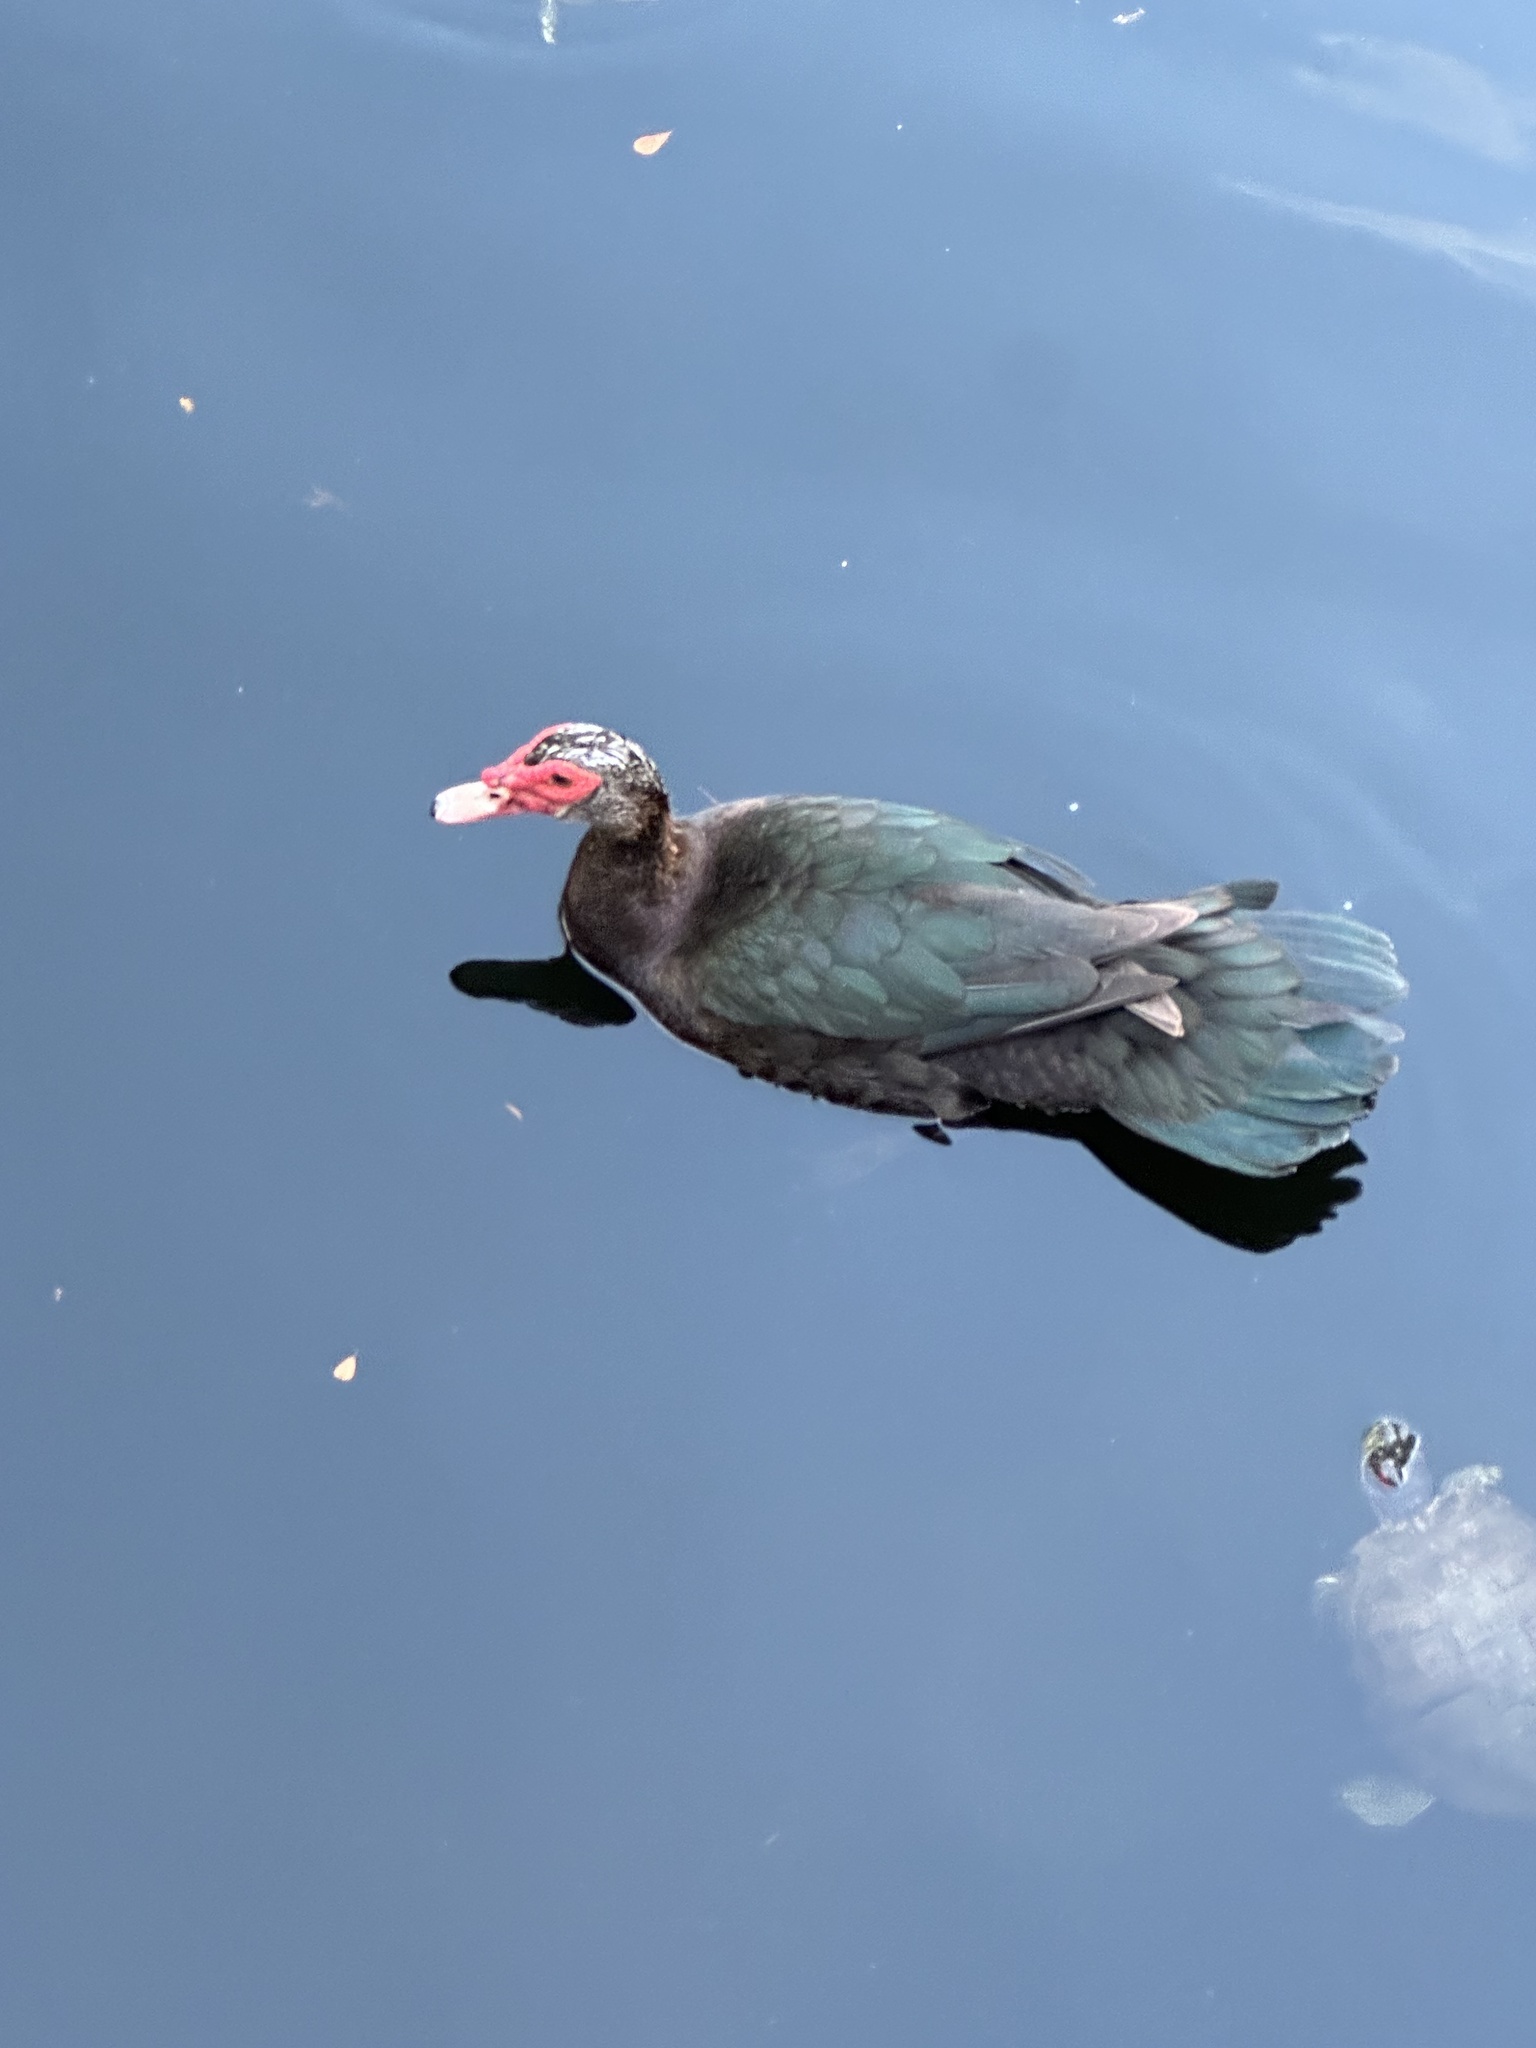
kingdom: Animalia
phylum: Chordata
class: Aves
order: Anseriformes
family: Anatidae
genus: Cairina
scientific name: Cairina moschata
